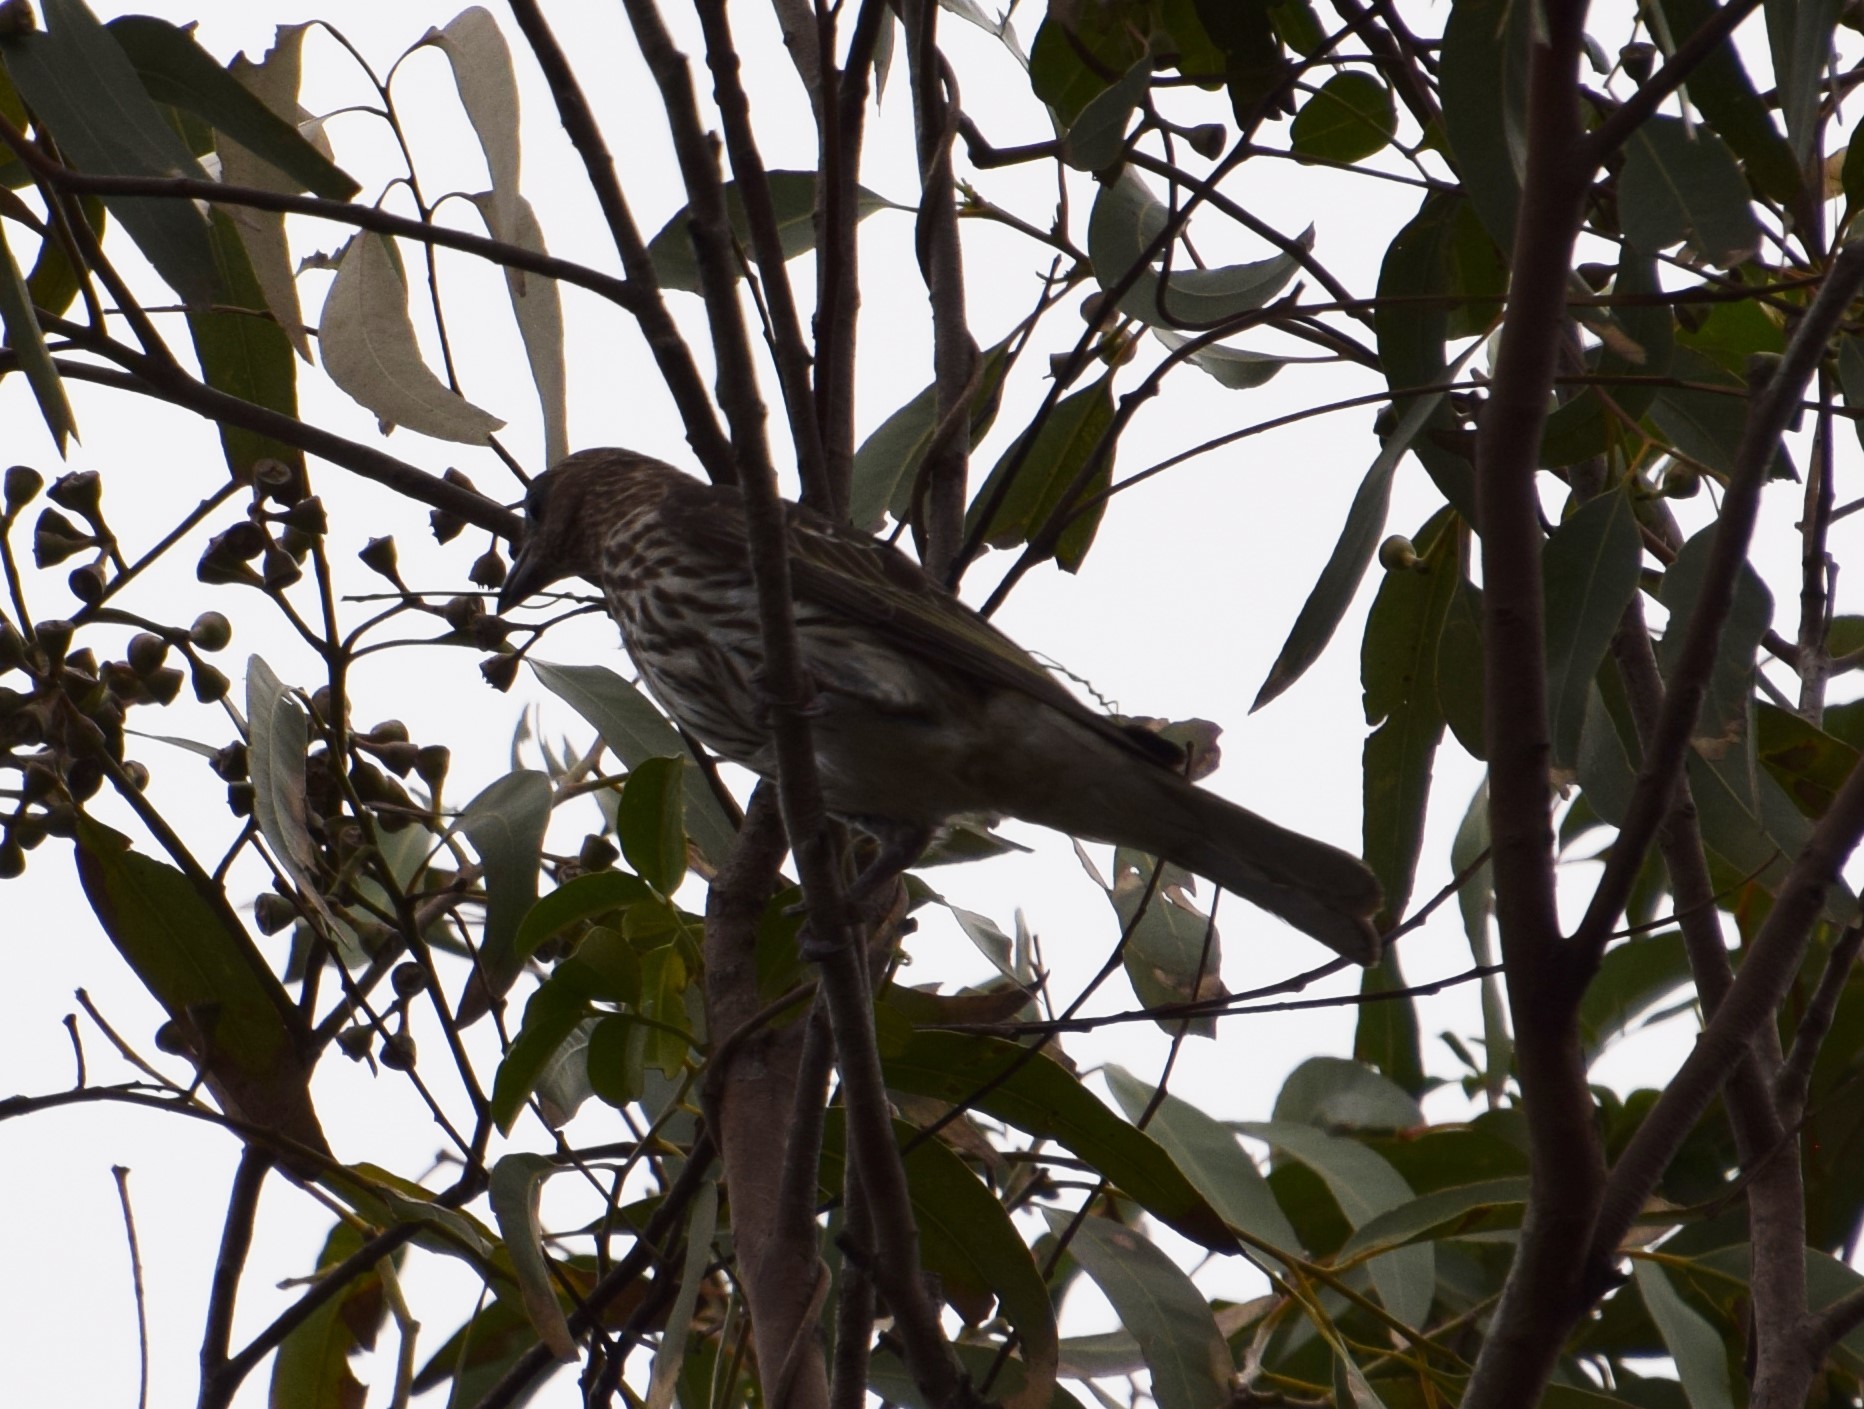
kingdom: Animalia
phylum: Chordata
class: Aves
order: Passeriformes
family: Oriolidae
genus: Sphecotheres
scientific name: Sphecotheres vieilloti
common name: Australasian figbird
